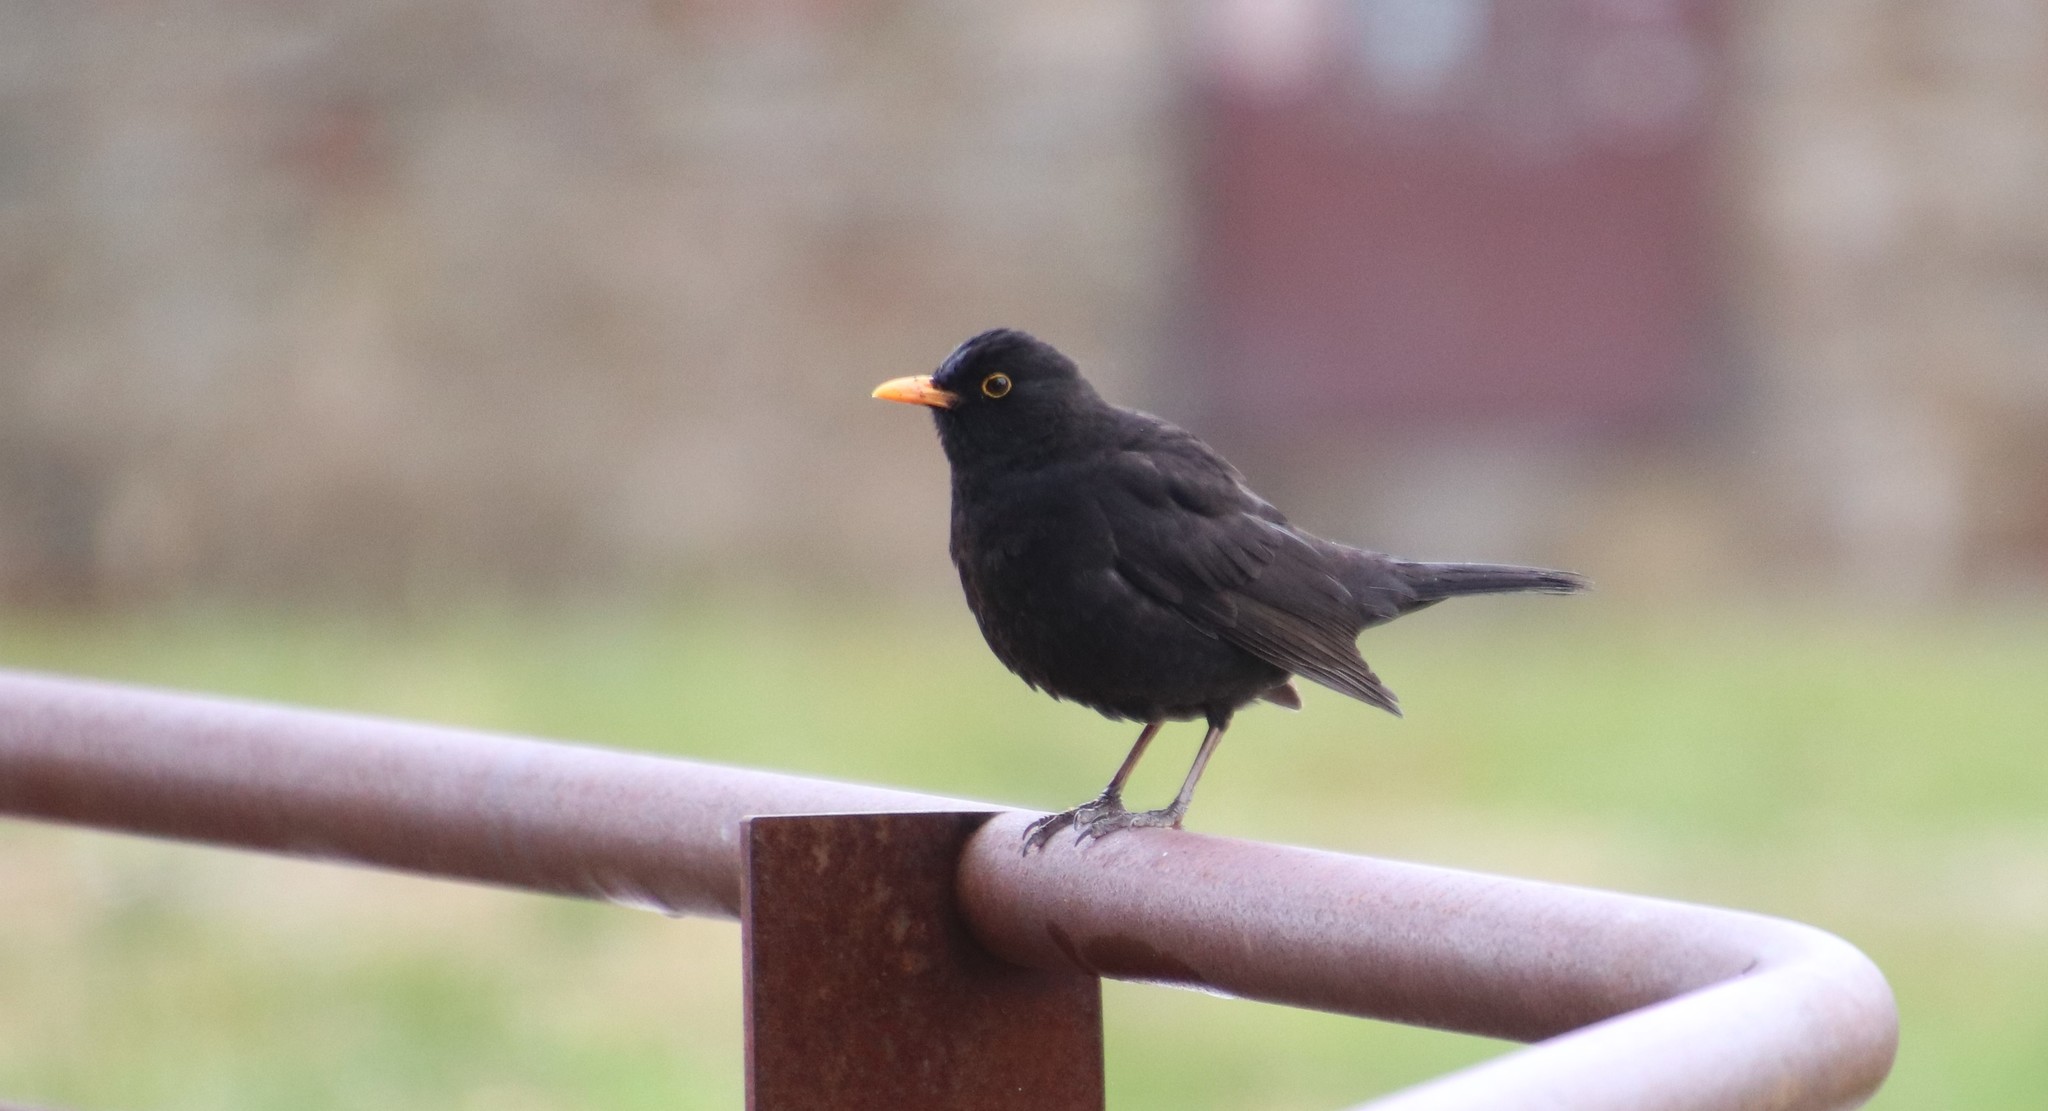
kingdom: Animalia
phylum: Chordata
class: Aves
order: Passeriformes
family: Turdidae
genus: Turdus
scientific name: Turdus merula
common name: Common blackbird
